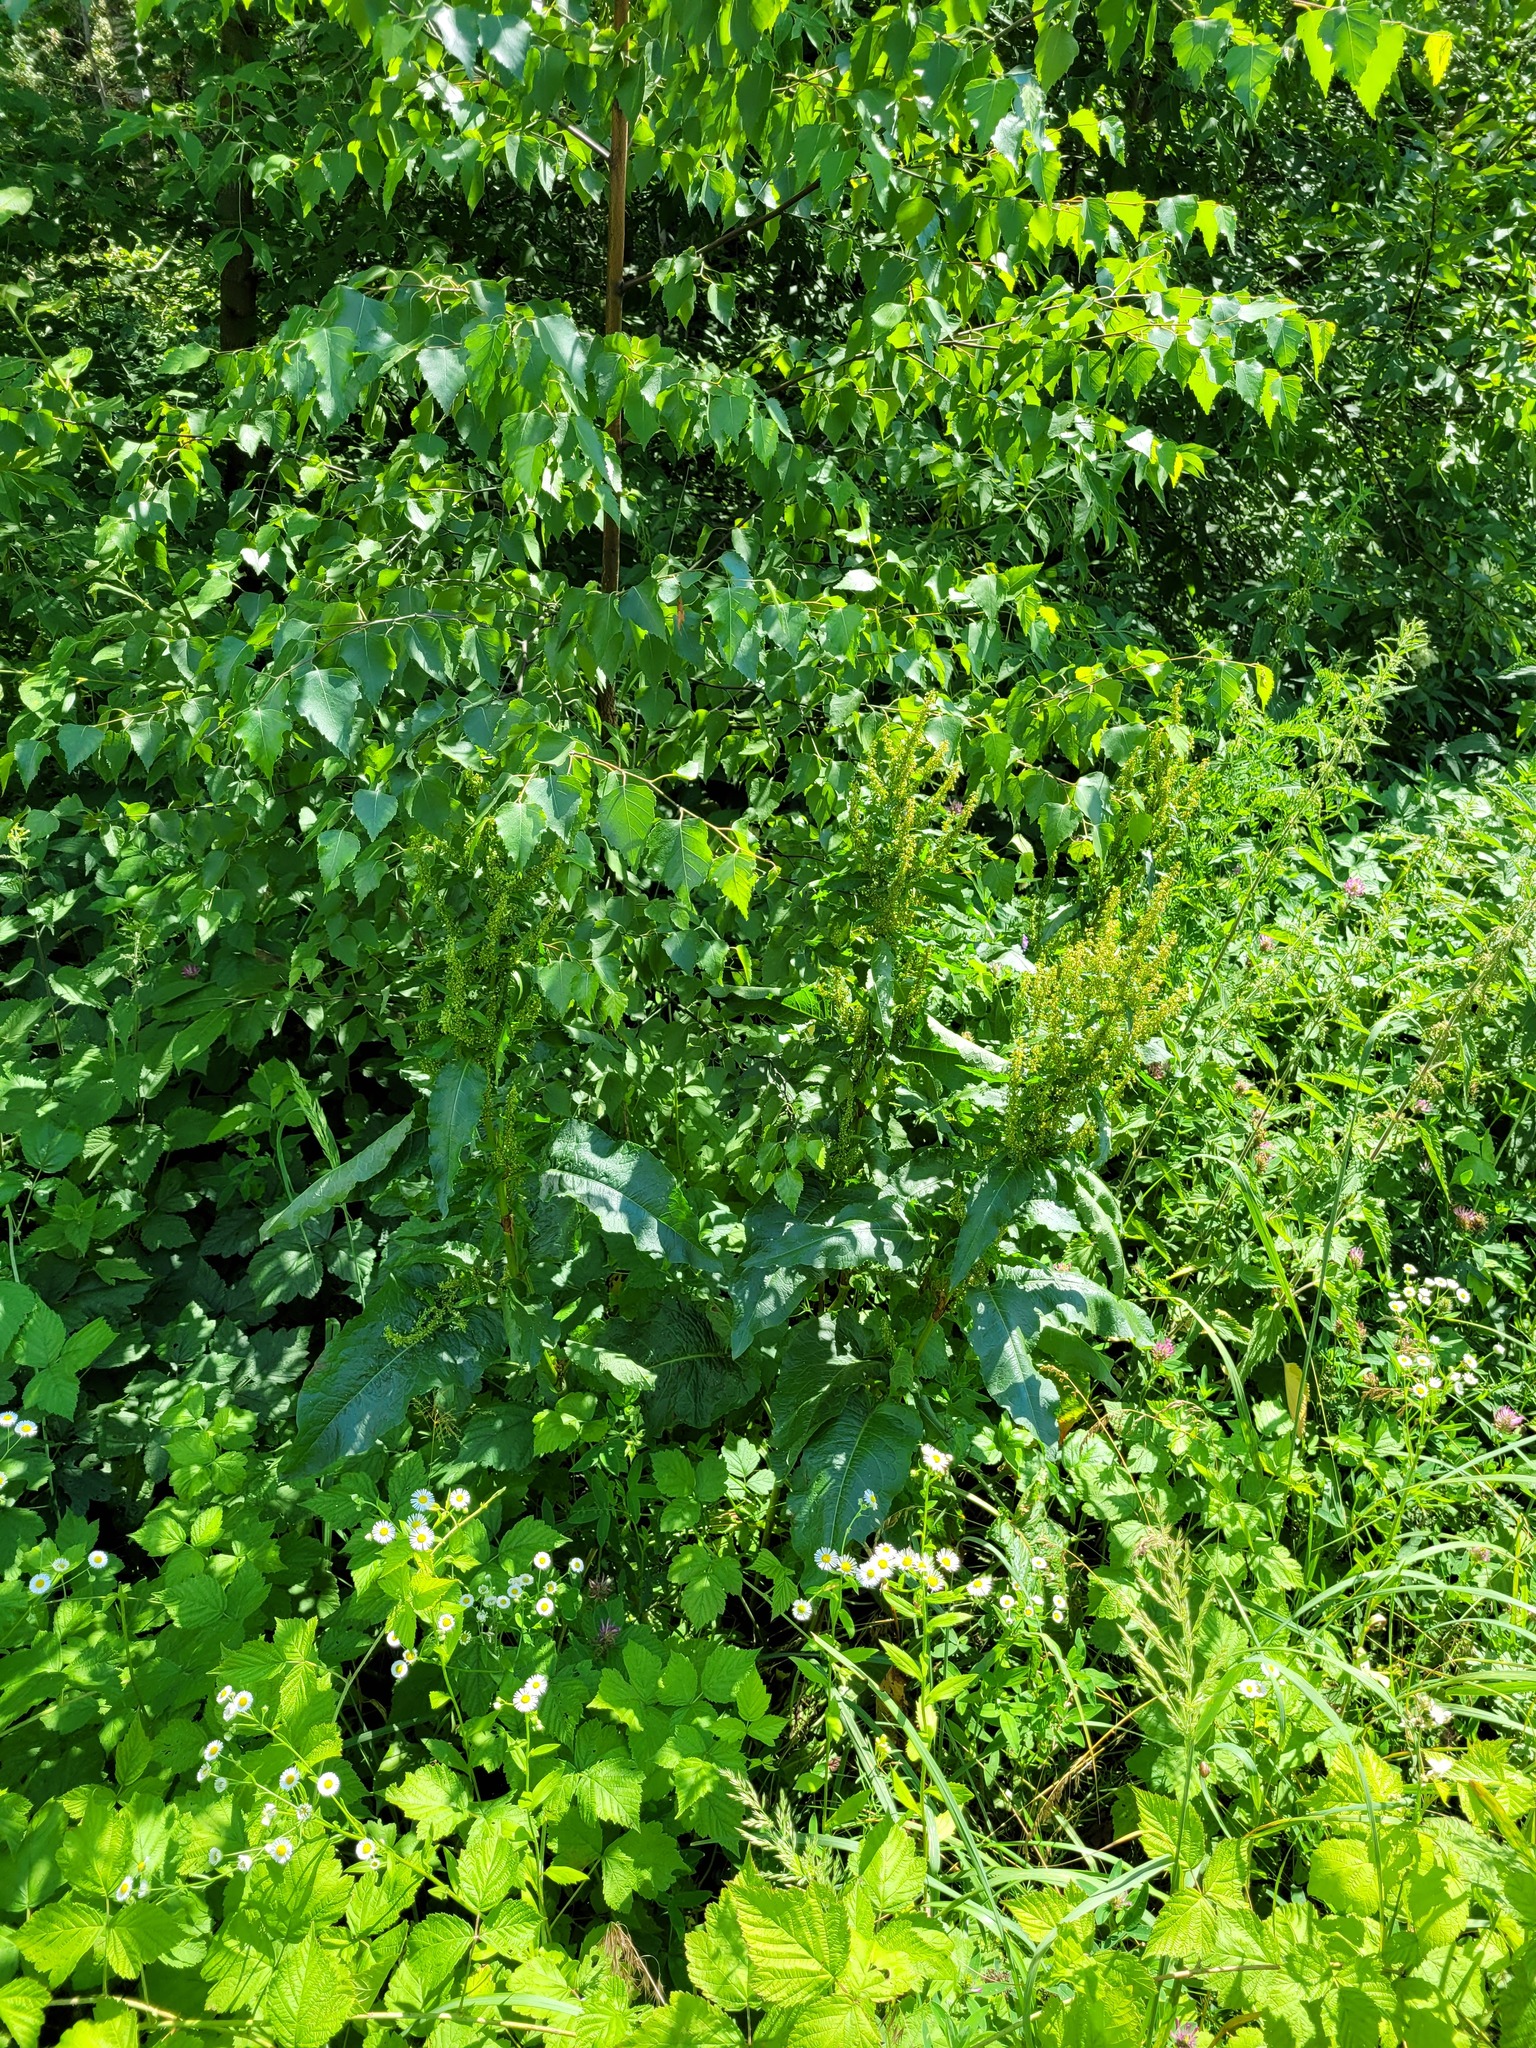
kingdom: Plantae
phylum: Tracheophyta
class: Magnoliopsida
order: Caryophyllales
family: Polygonaceae
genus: Rumex
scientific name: Rumex obtusifolius
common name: Bitter dock
